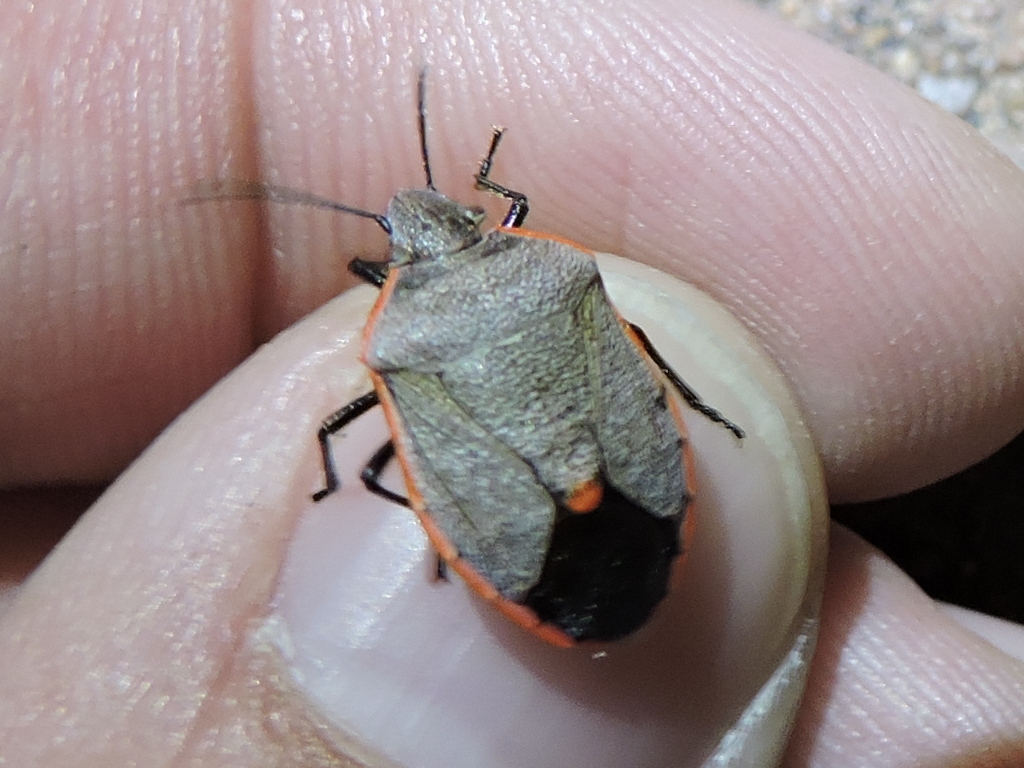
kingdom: Animalia
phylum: Arthropoda
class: Insecta
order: Hemiptera
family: Pentatomidae
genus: Chlorochroa
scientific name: Chlorochroa ligata
